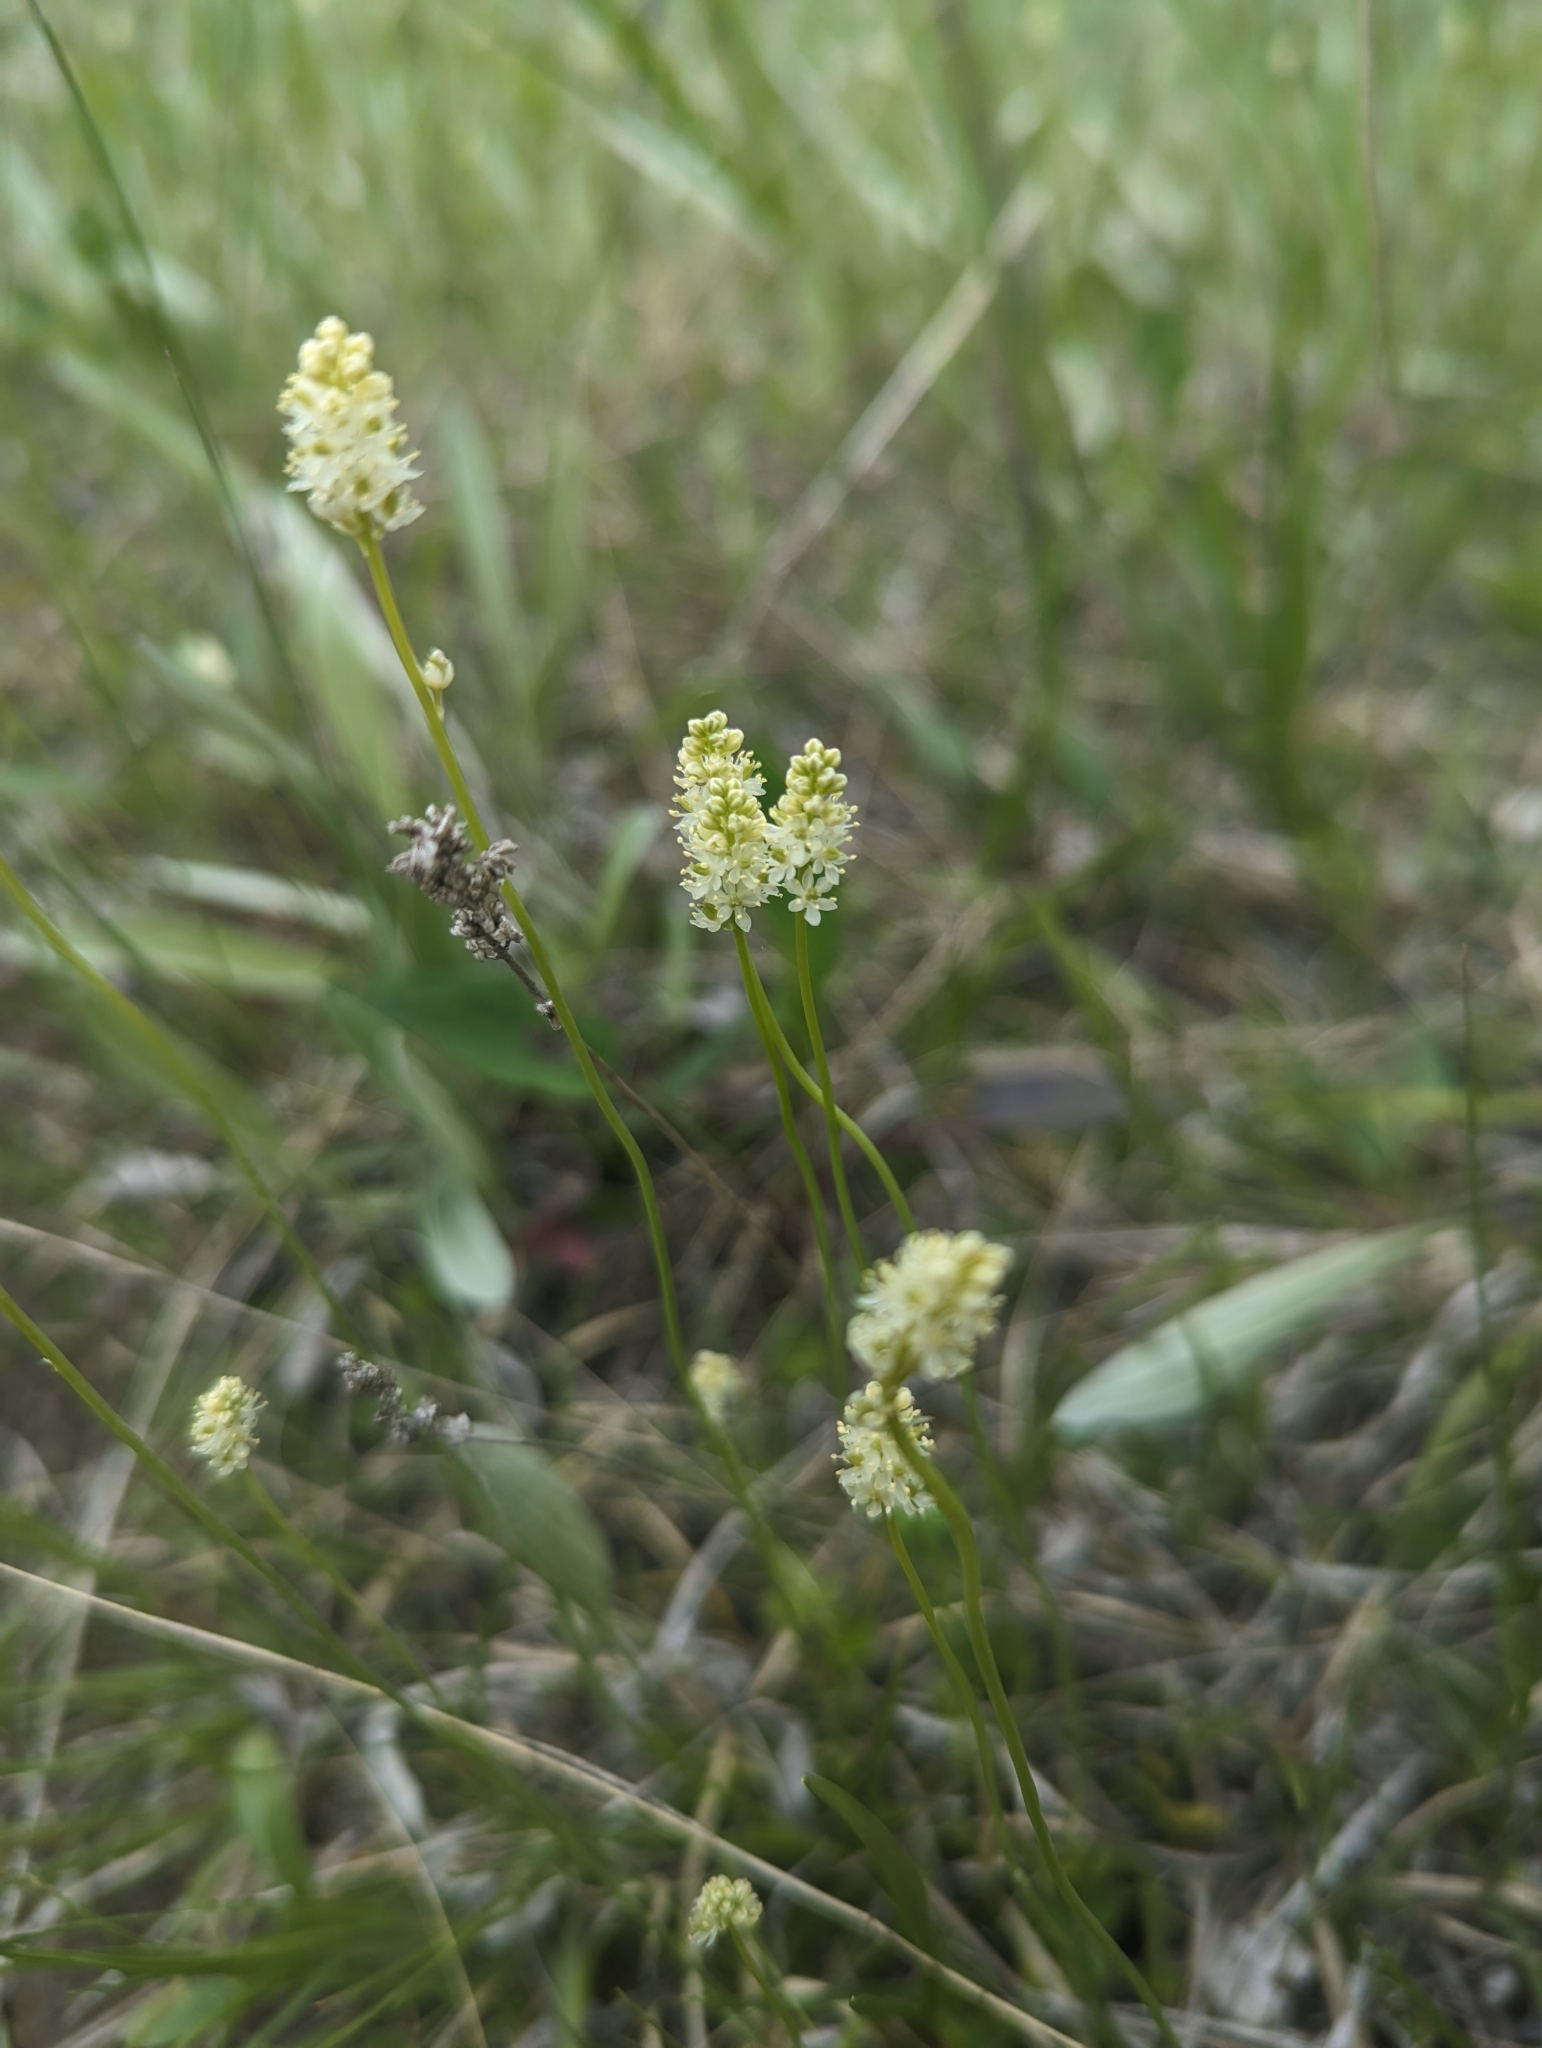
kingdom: Plantae
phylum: Tracheophyta
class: Liliopsida
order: Alismatales
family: Tofieldiaceae
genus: Tofieldia
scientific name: Tofieldia pusilla
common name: Scottish false asphodel
